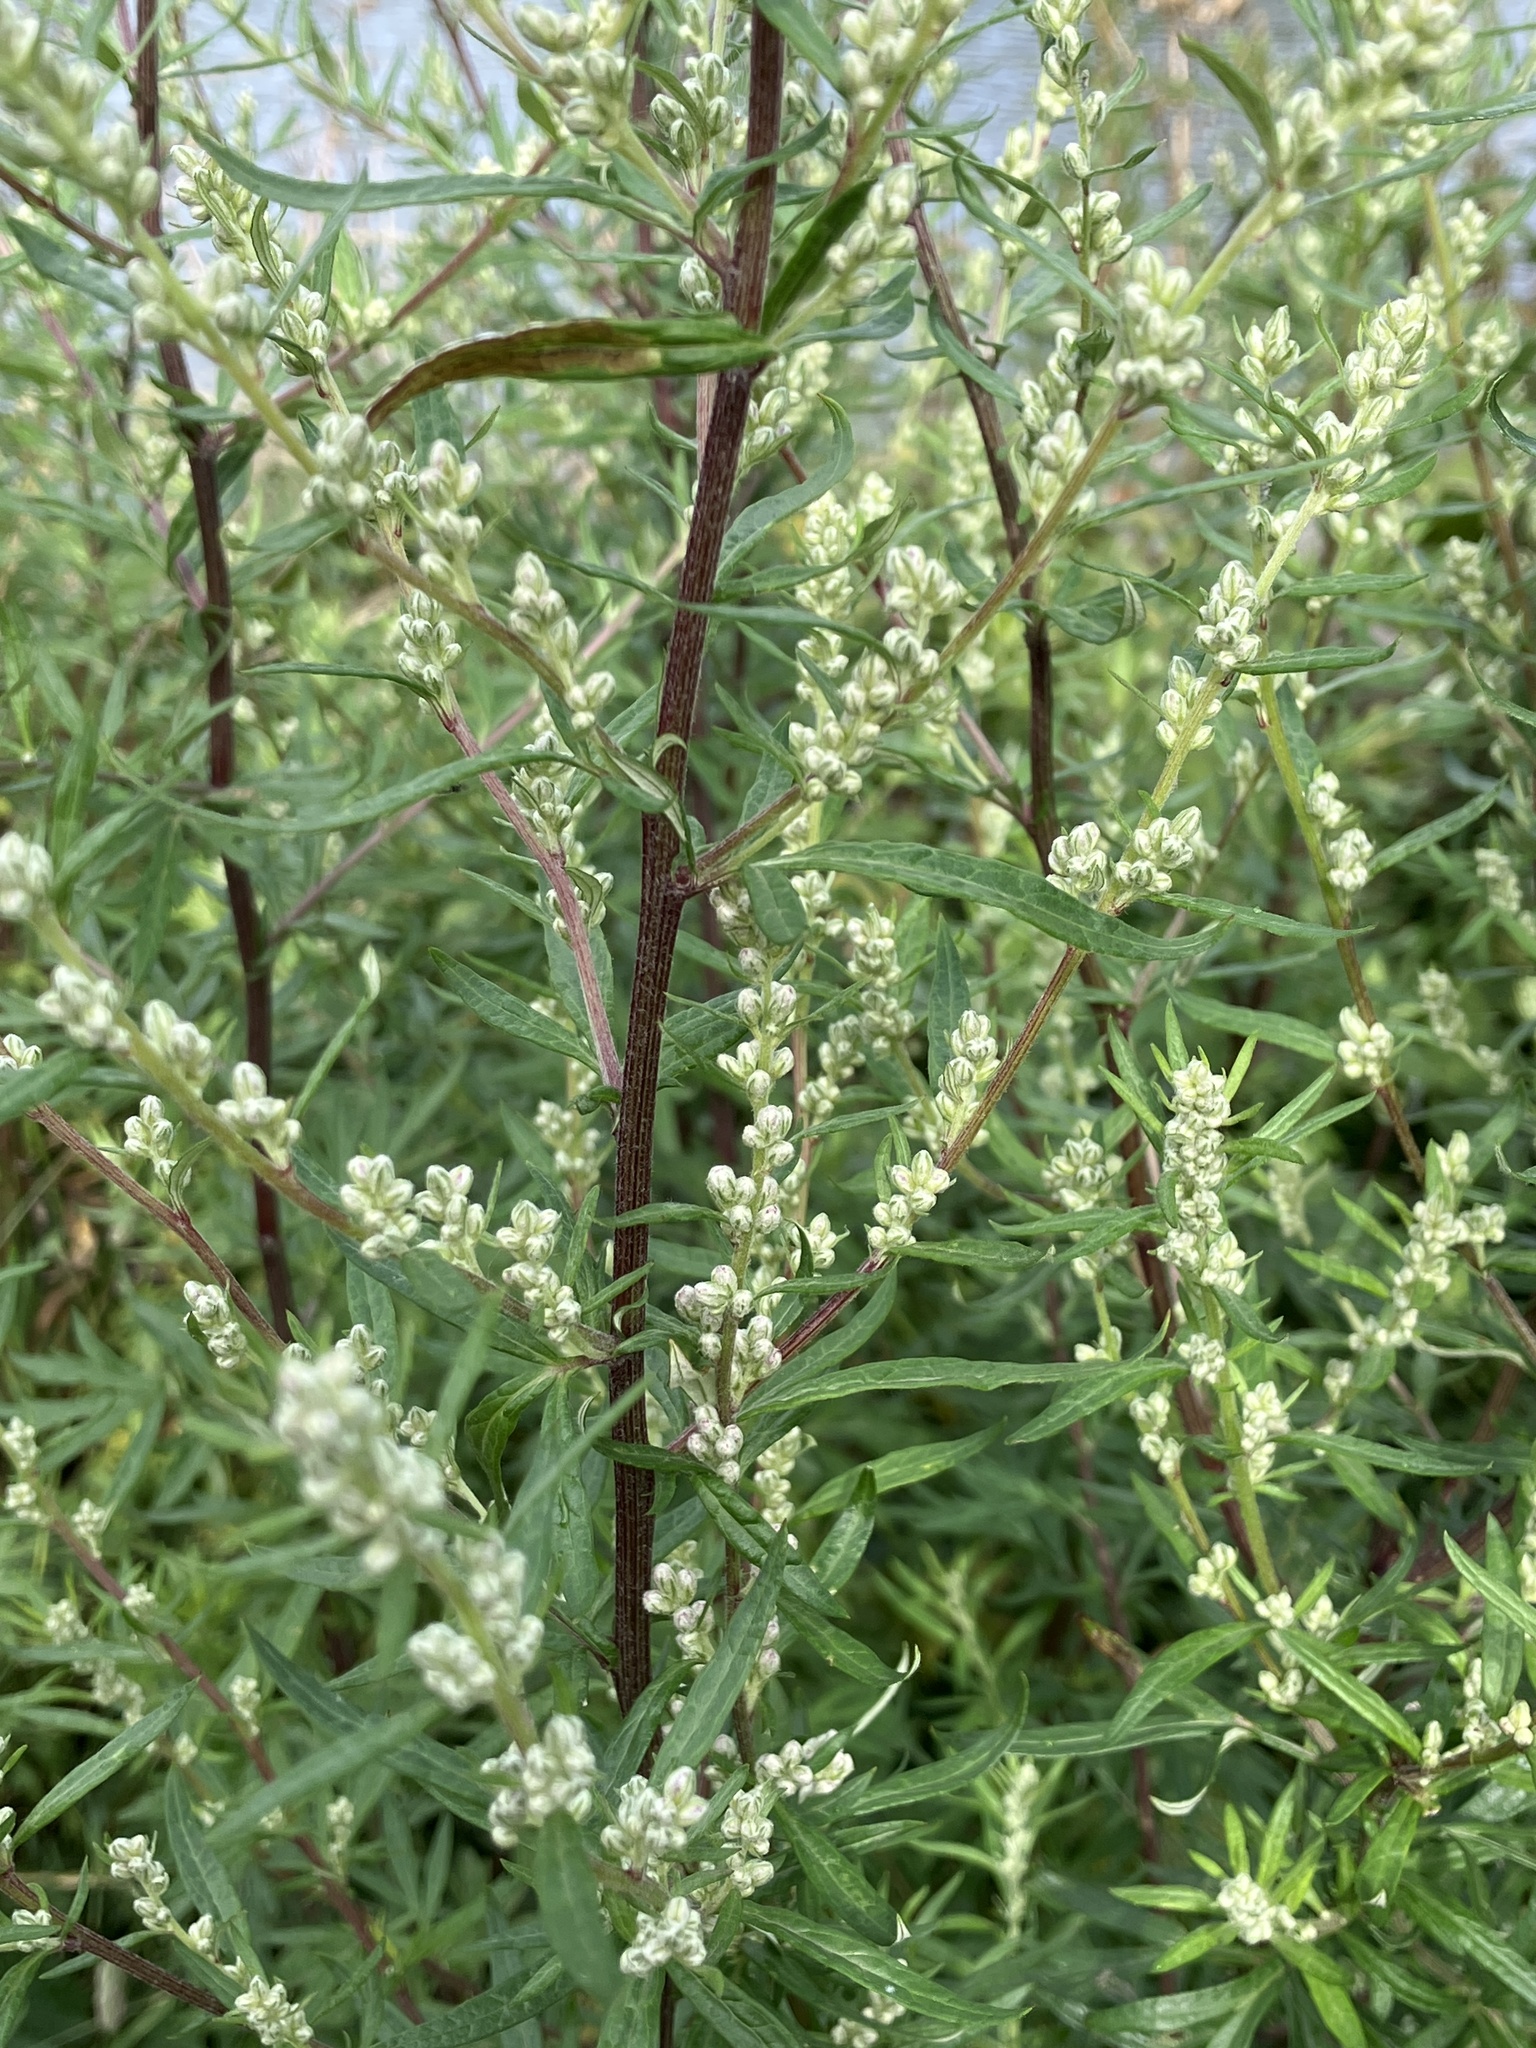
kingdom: Plantae
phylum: Tracheophyta
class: Magnoliopsida
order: Asterales
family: Asteraceae
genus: Artemisia
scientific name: Artemisia vulgaris
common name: Mugwort
